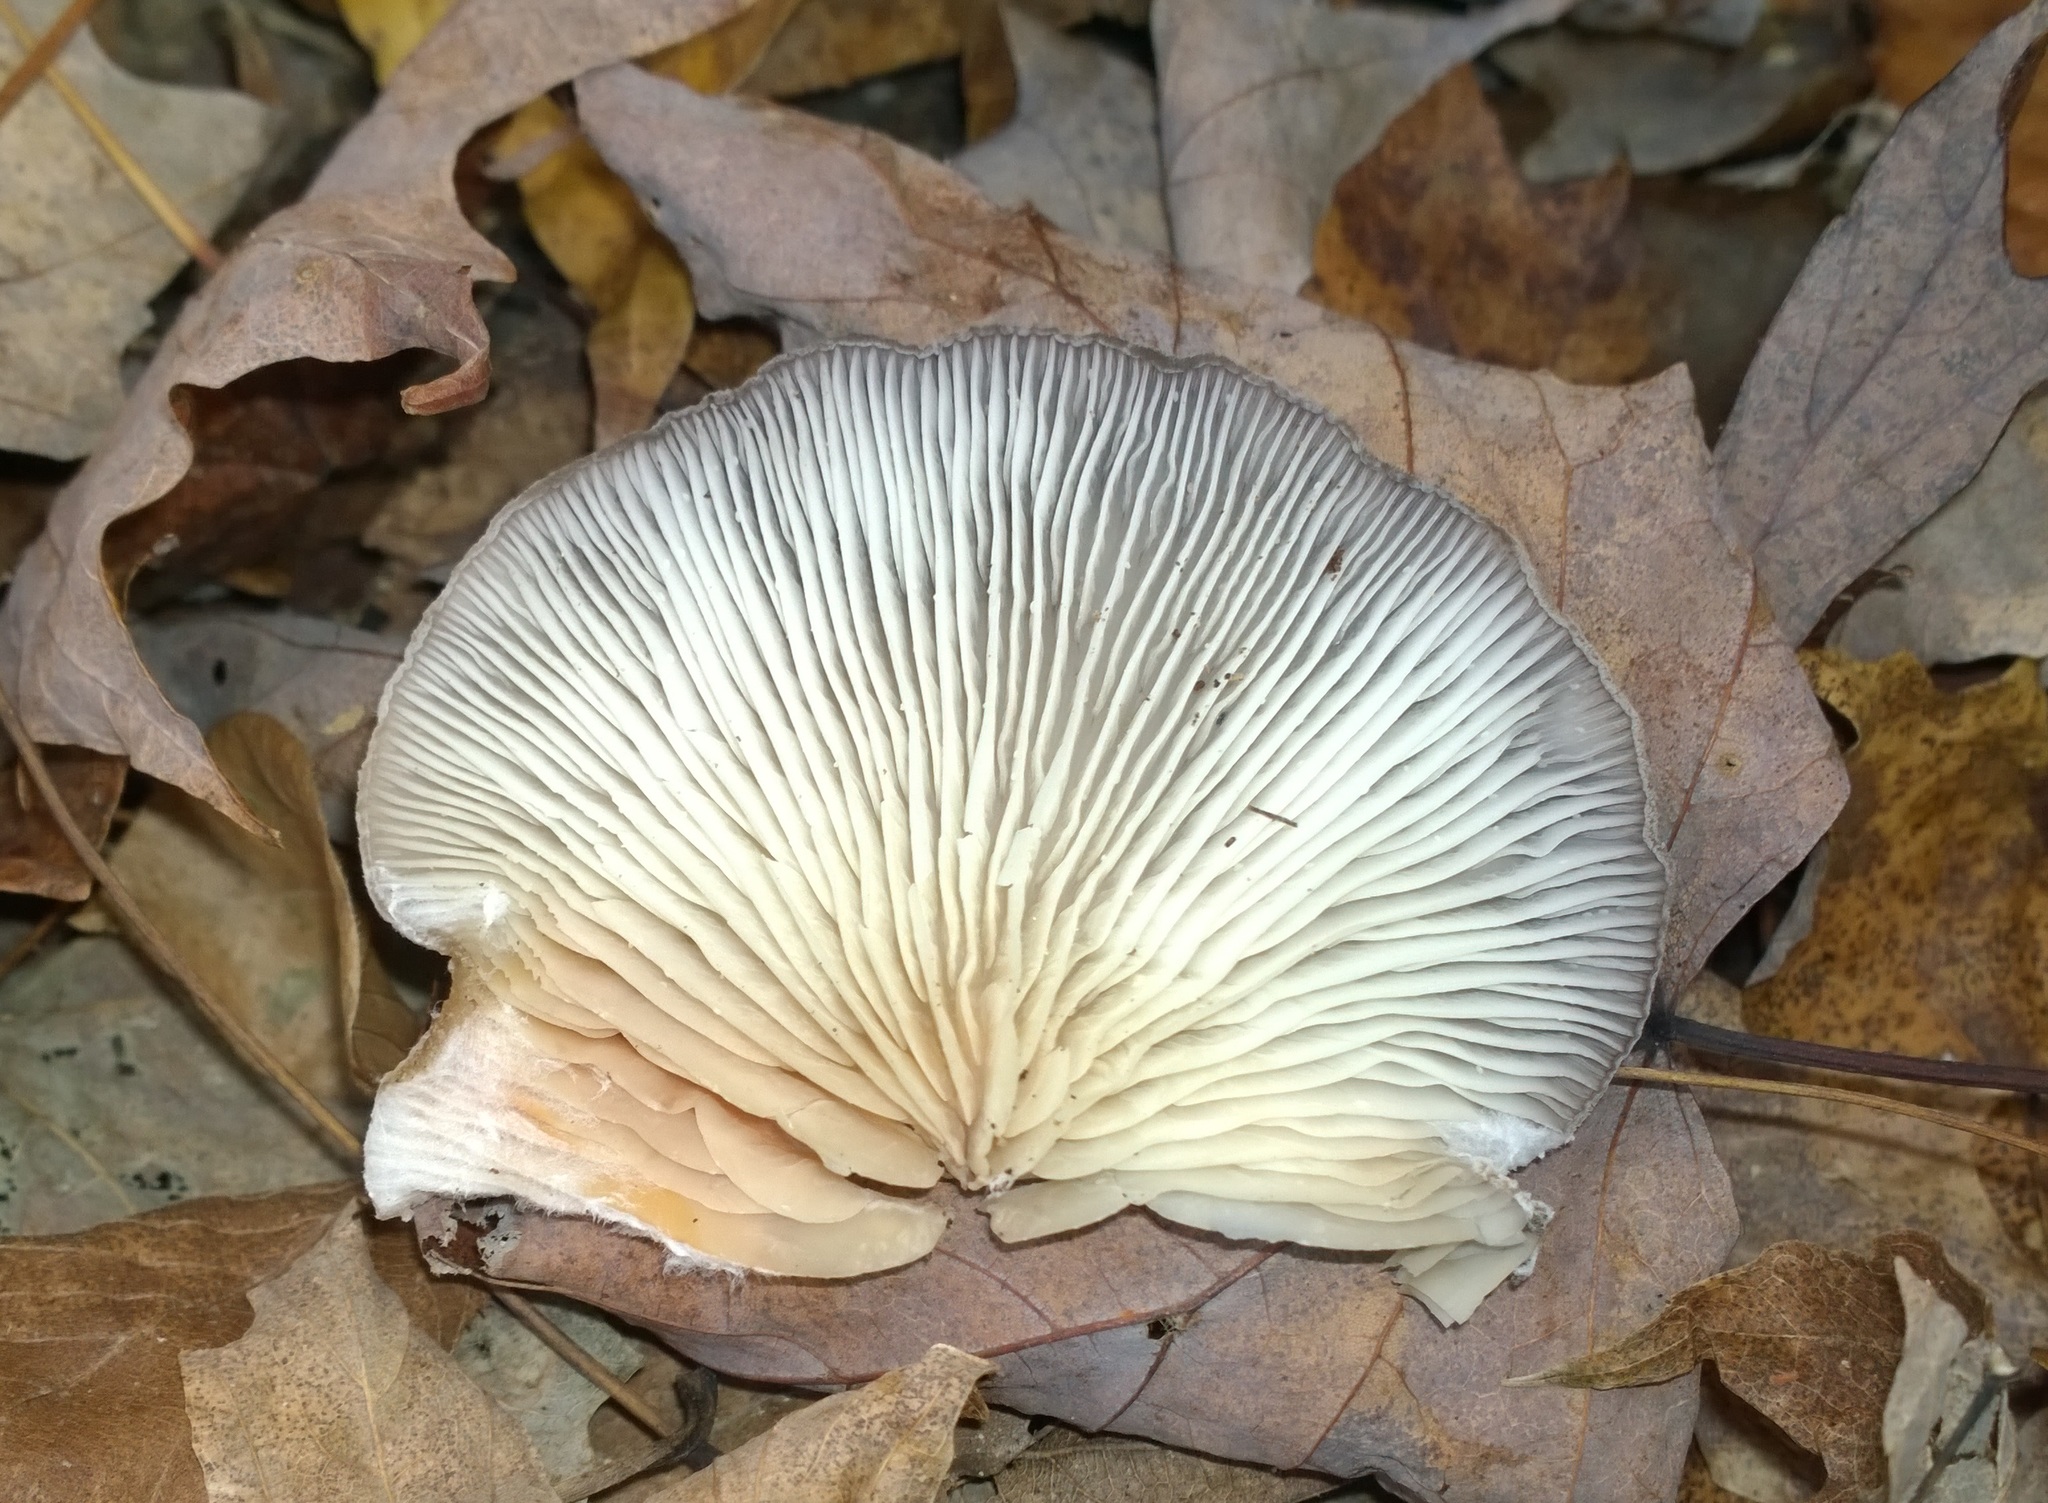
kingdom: Fungi
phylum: Basidiomycota
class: Agaricomycetes
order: Agaricales
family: Pleurotaceae
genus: Hohenbuehelia
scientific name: Hohenbuehelia mastrucata
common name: Woolly oyster
